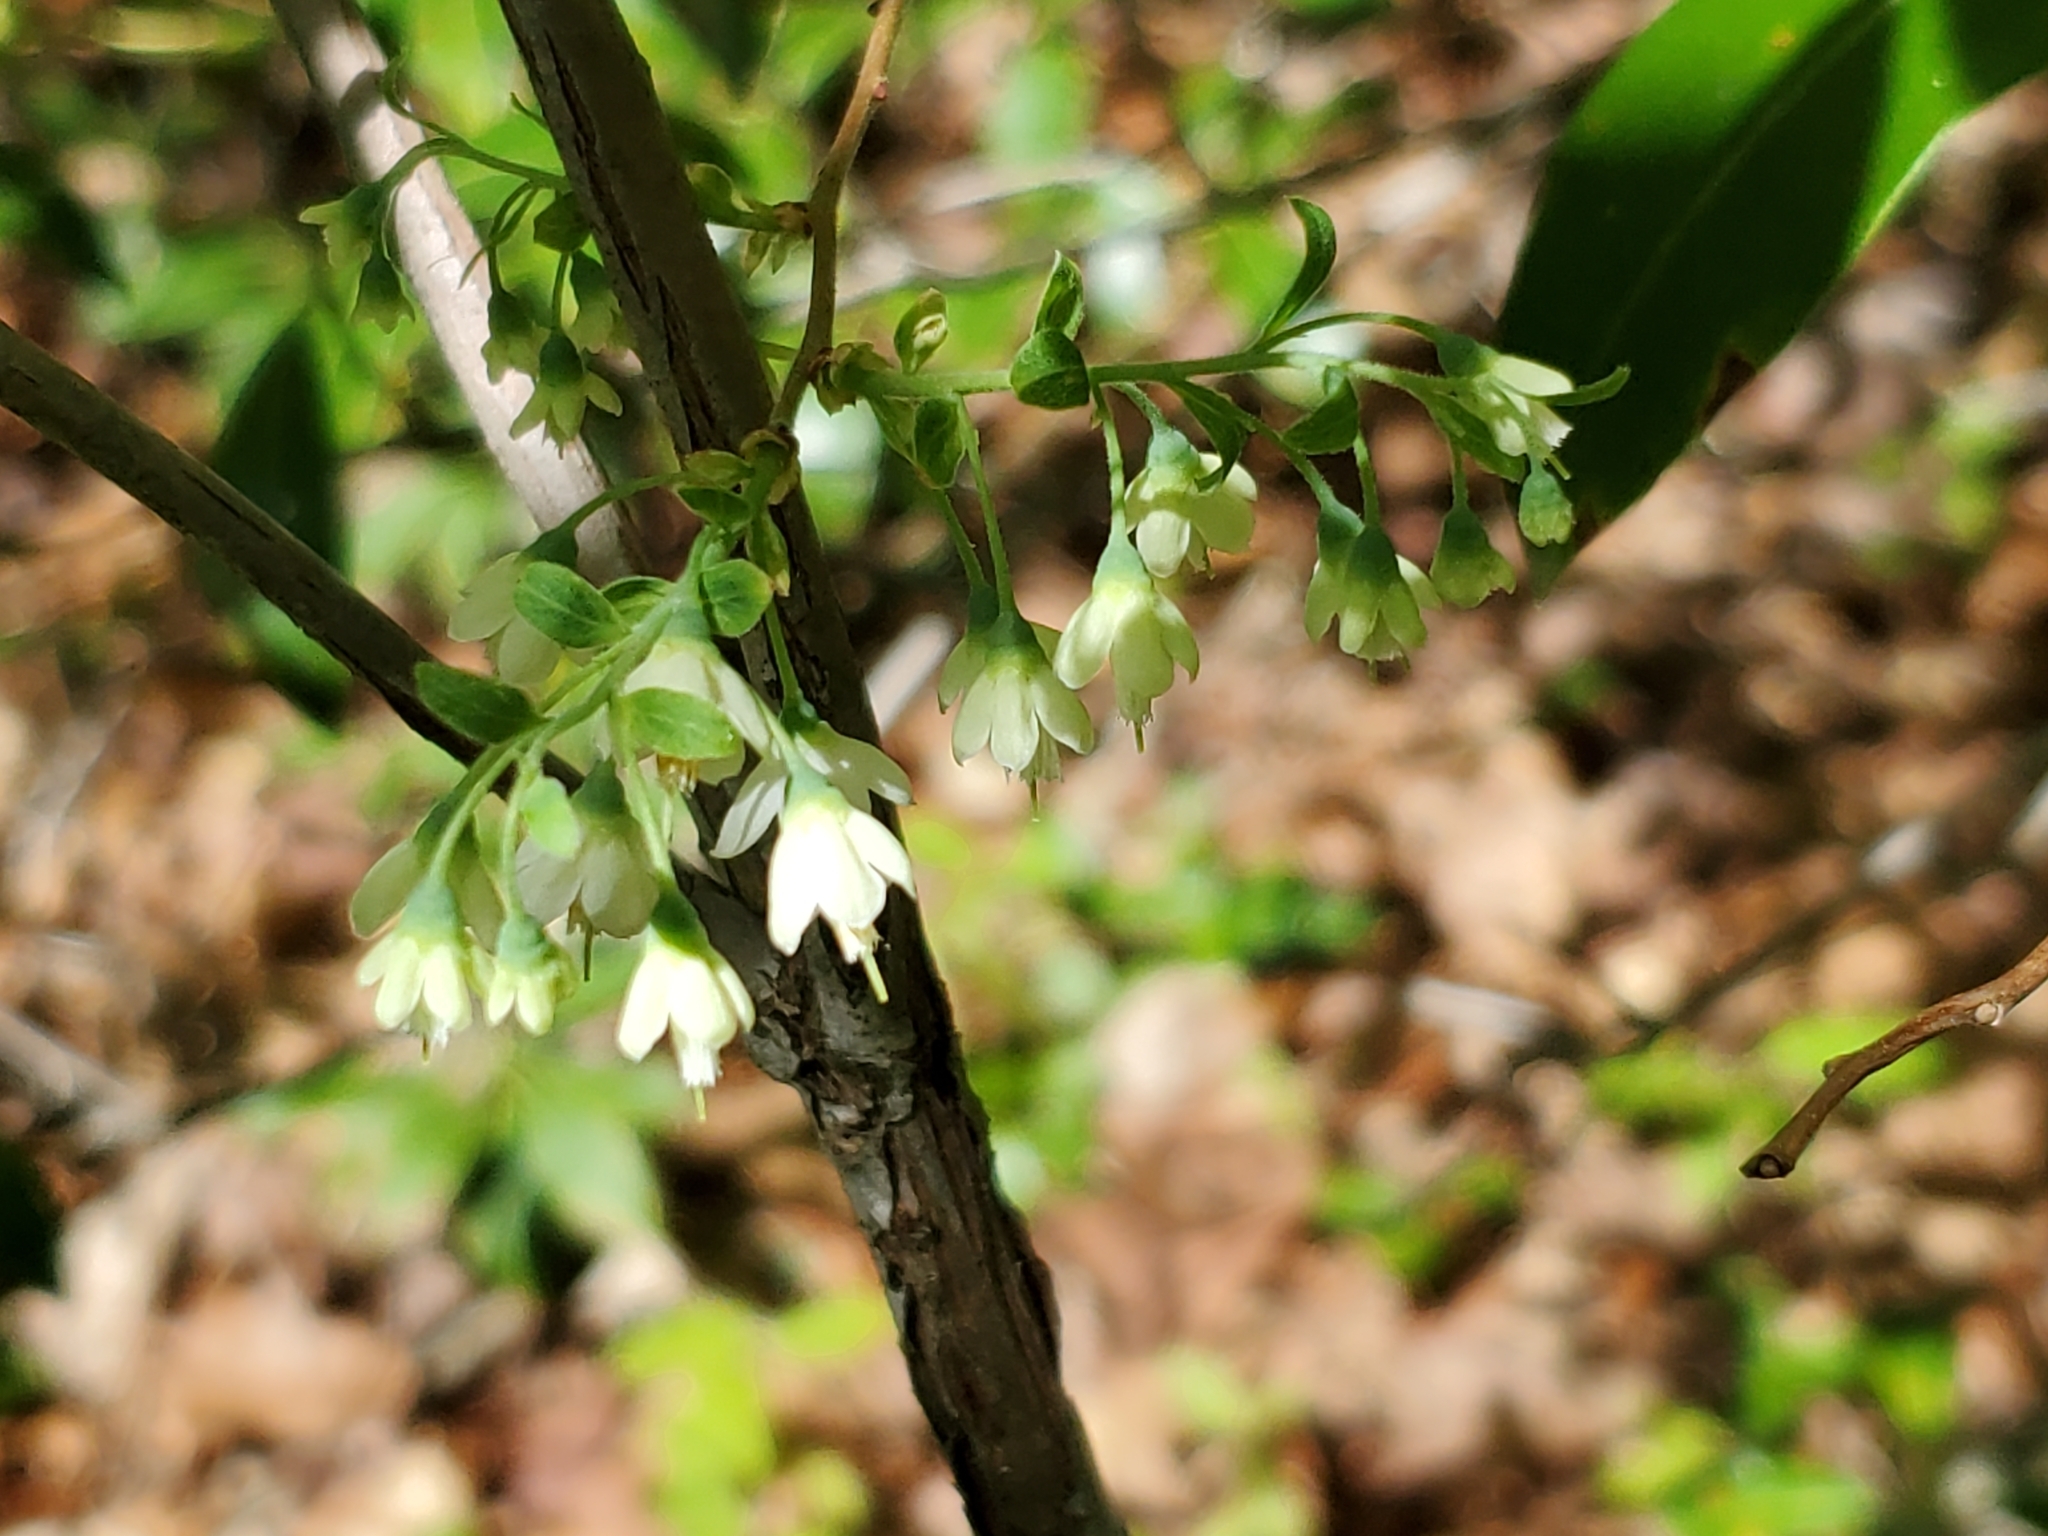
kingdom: Plantae
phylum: Tracheophyta
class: Magnoliopsida
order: Ericales
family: Ericaceae
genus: Vaccinium
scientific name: Vaccinium stamineum
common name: Deerberry
